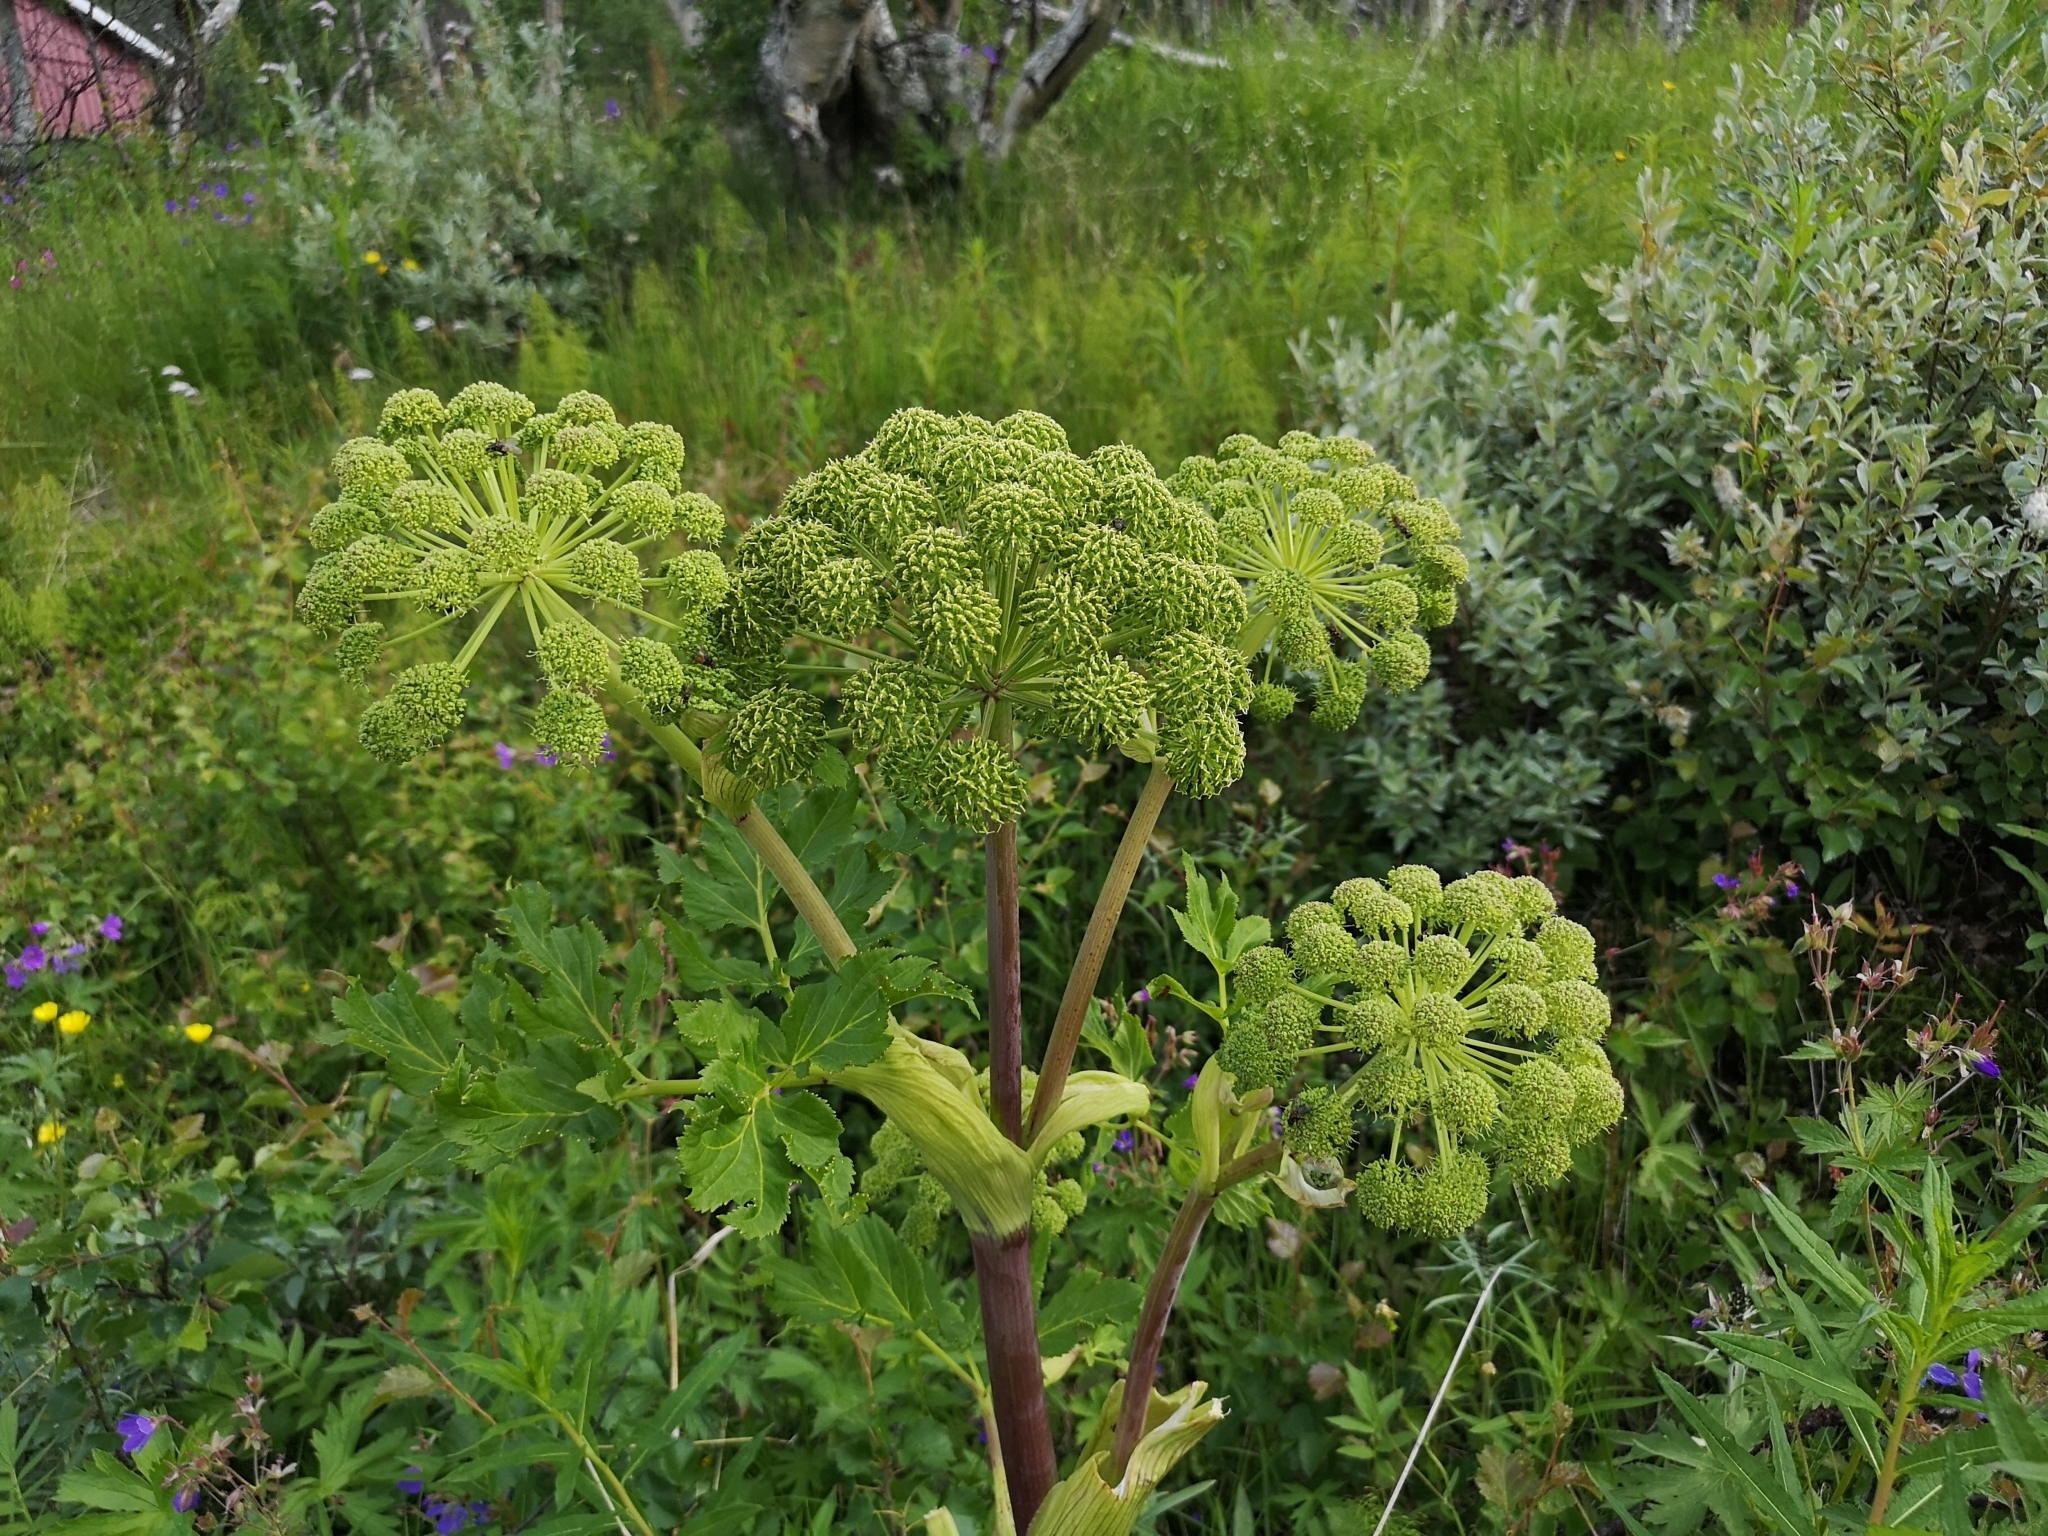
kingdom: Plantae
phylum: Tracheophyta
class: Magnoliopsida
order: Apiales
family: Apiaceae
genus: Angelica
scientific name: Angelica archangelica
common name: Garden angelica
